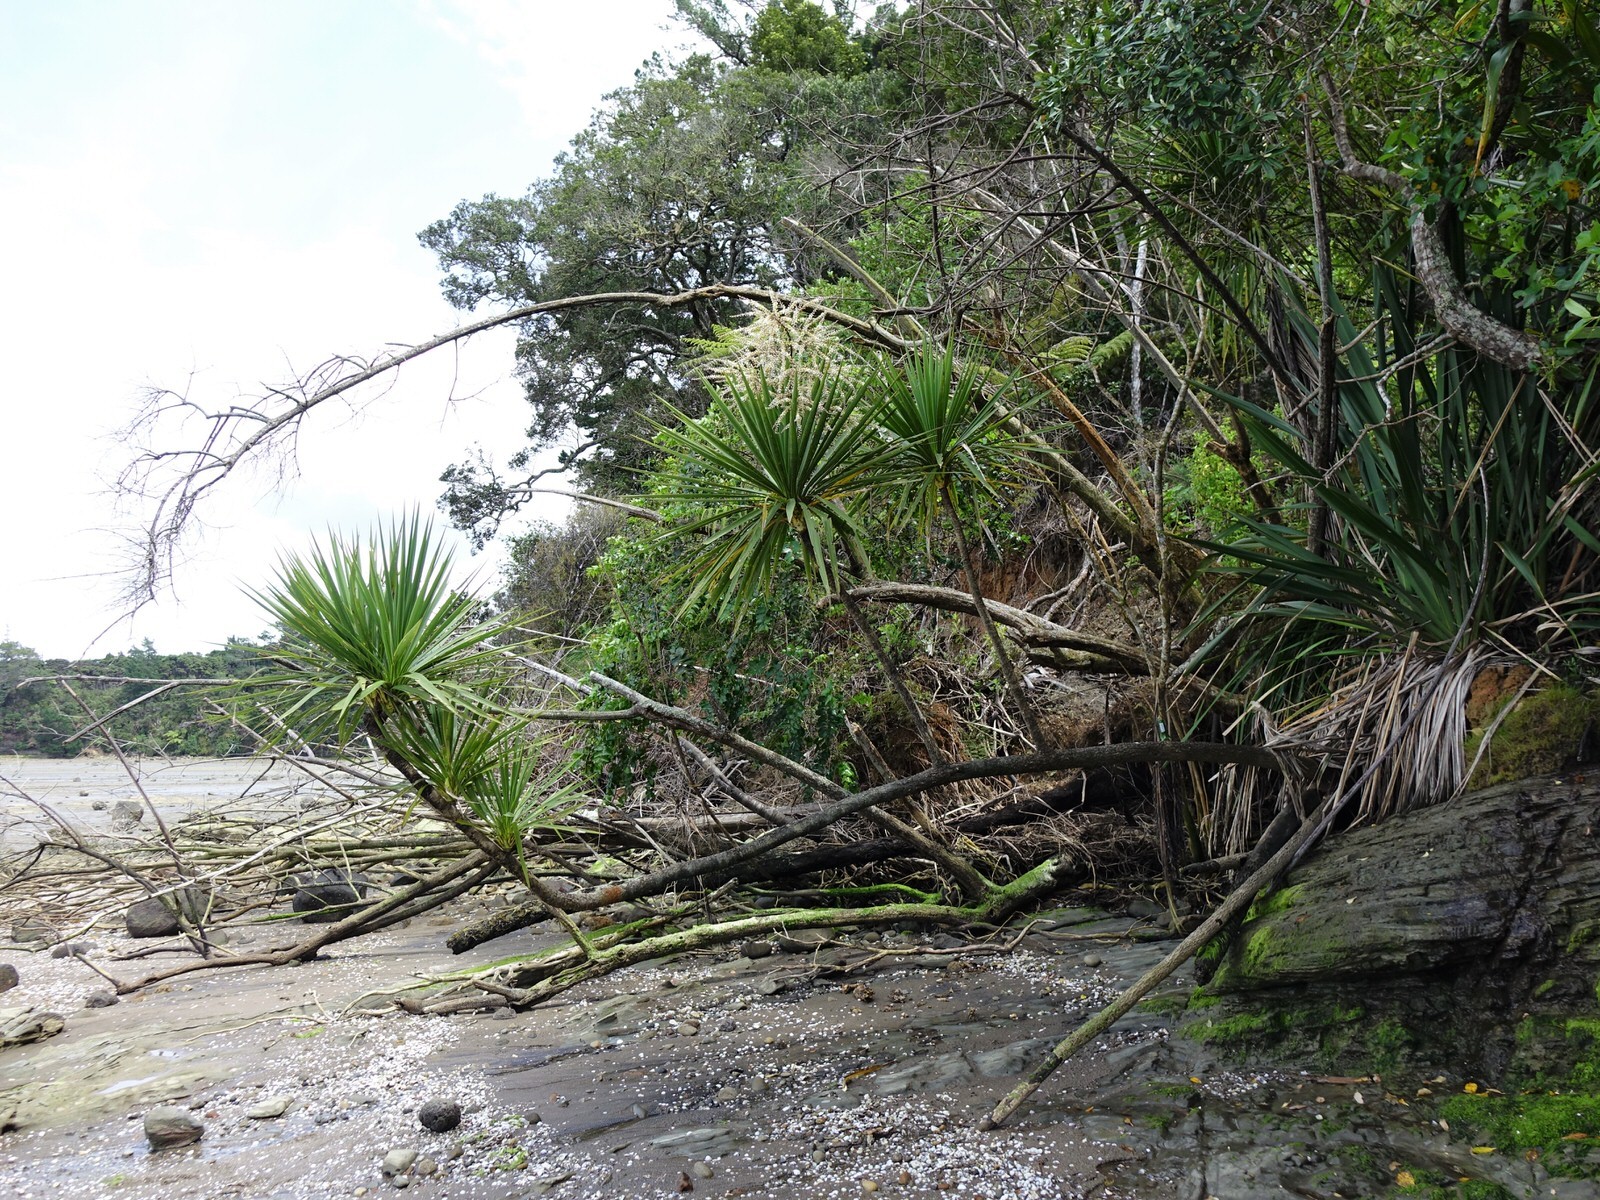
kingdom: Plantae
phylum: Tracheophyta
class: Liliopsida
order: Asparagales
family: Asparagaceae
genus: Cordyline
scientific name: Cordyline australis
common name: Cabbage-palm
